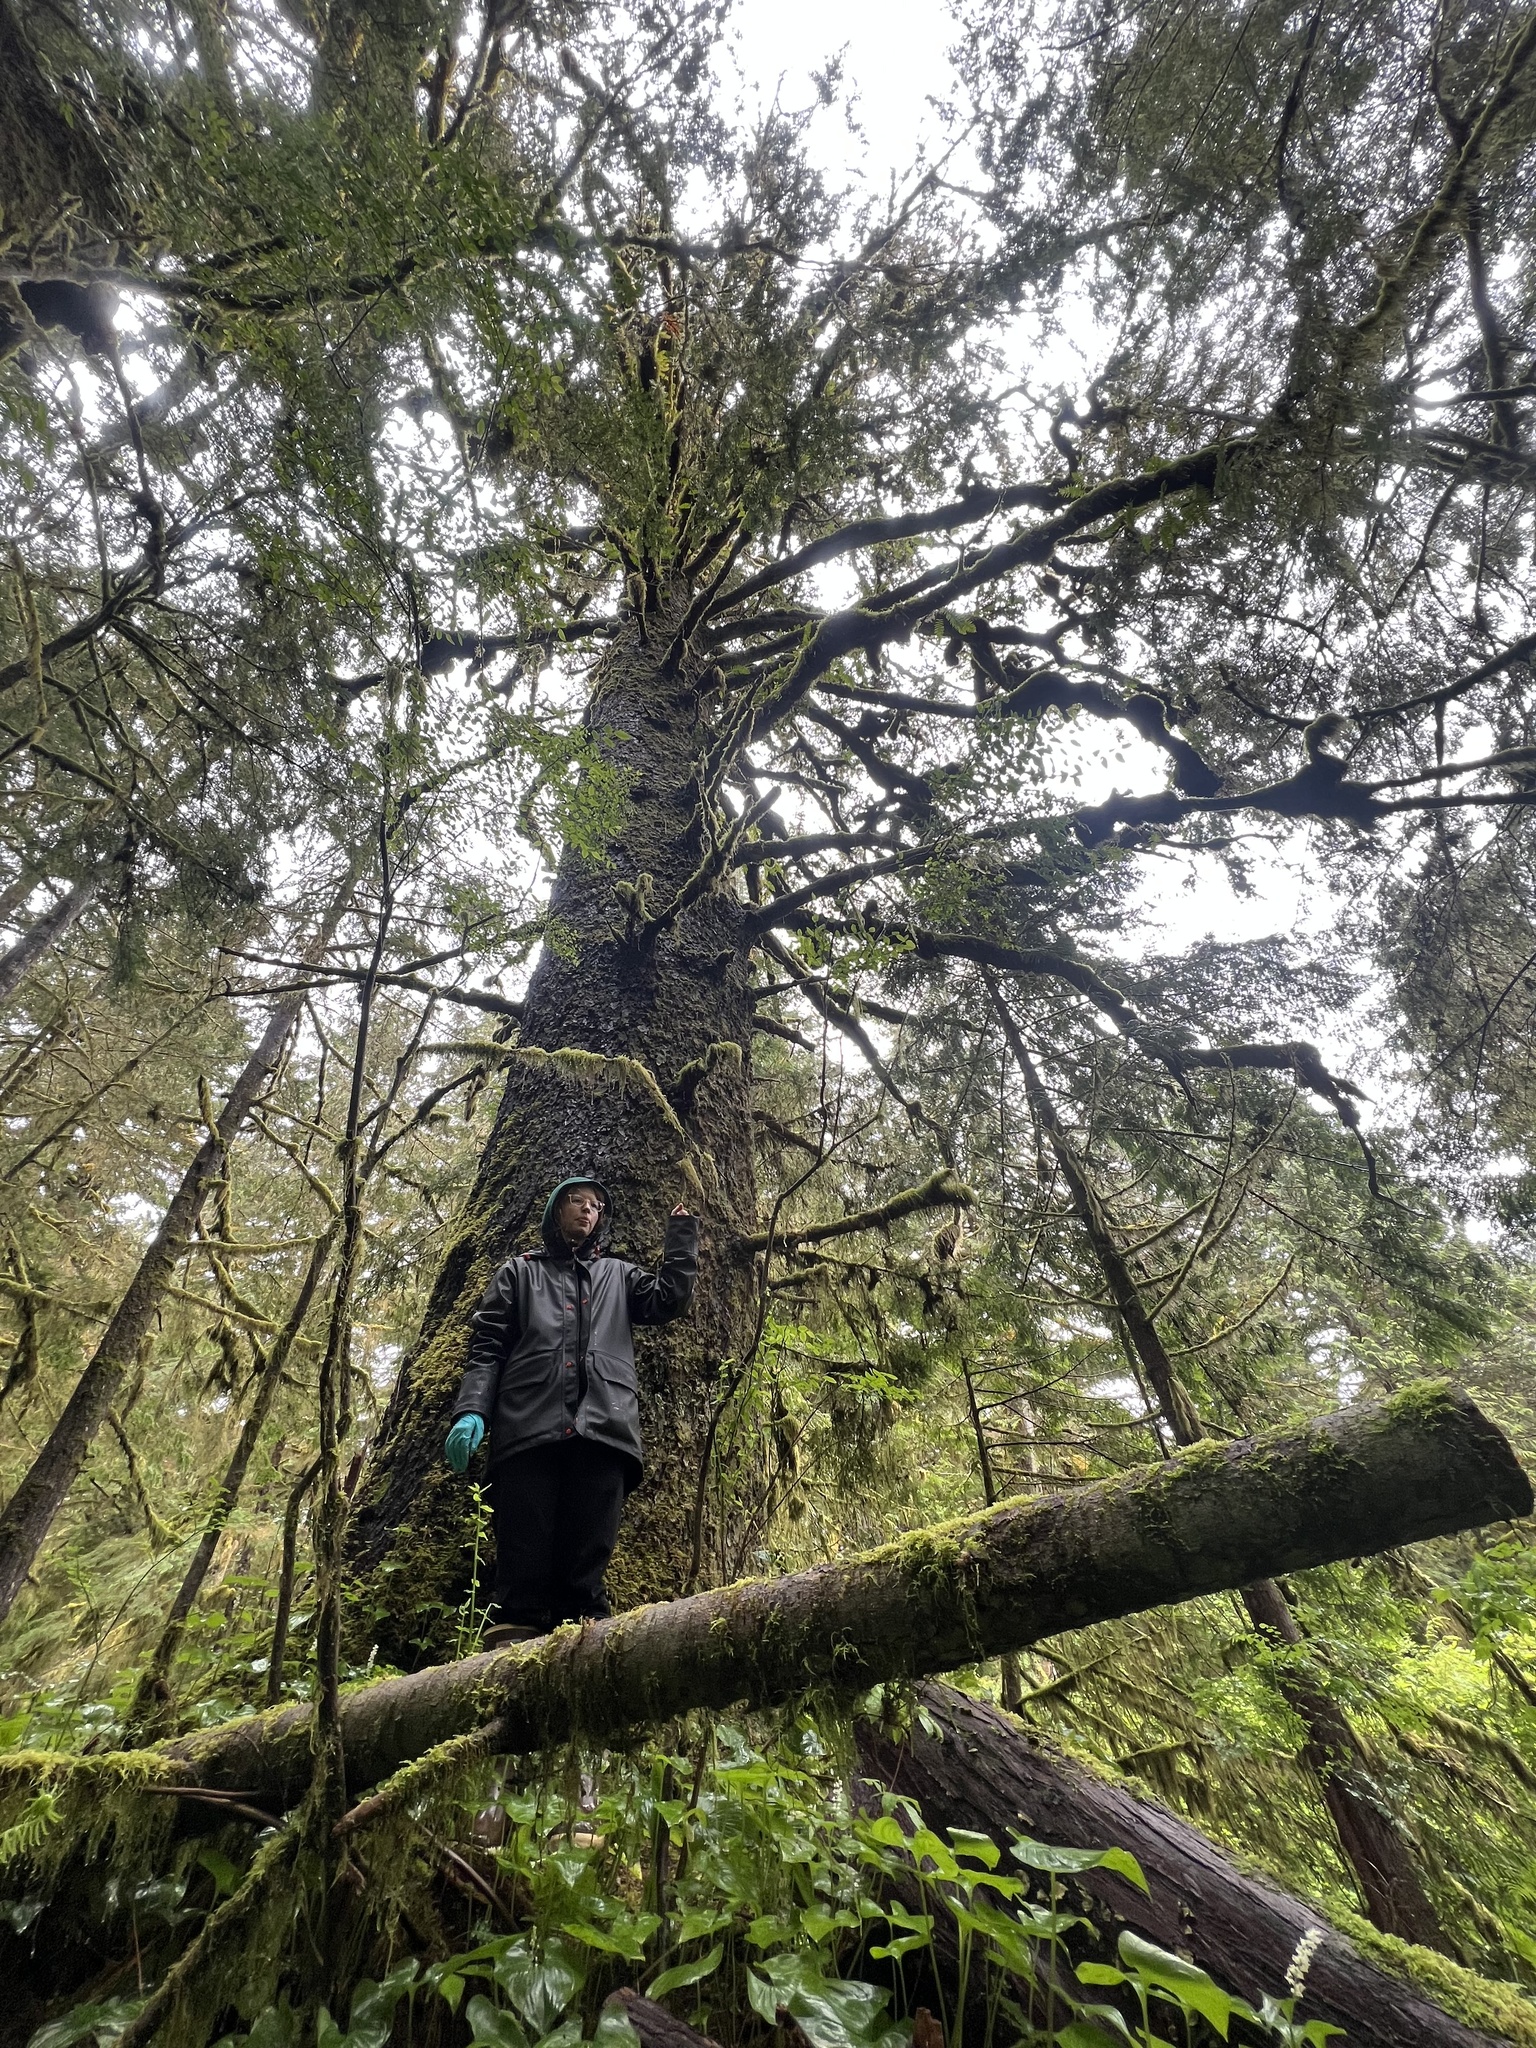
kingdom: Plantae
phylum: Tracheophyta
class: Pinopsida
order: Pinales
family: Pinaceae
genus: Picea
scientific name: Picea sitchensis
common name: Sitka spruce
